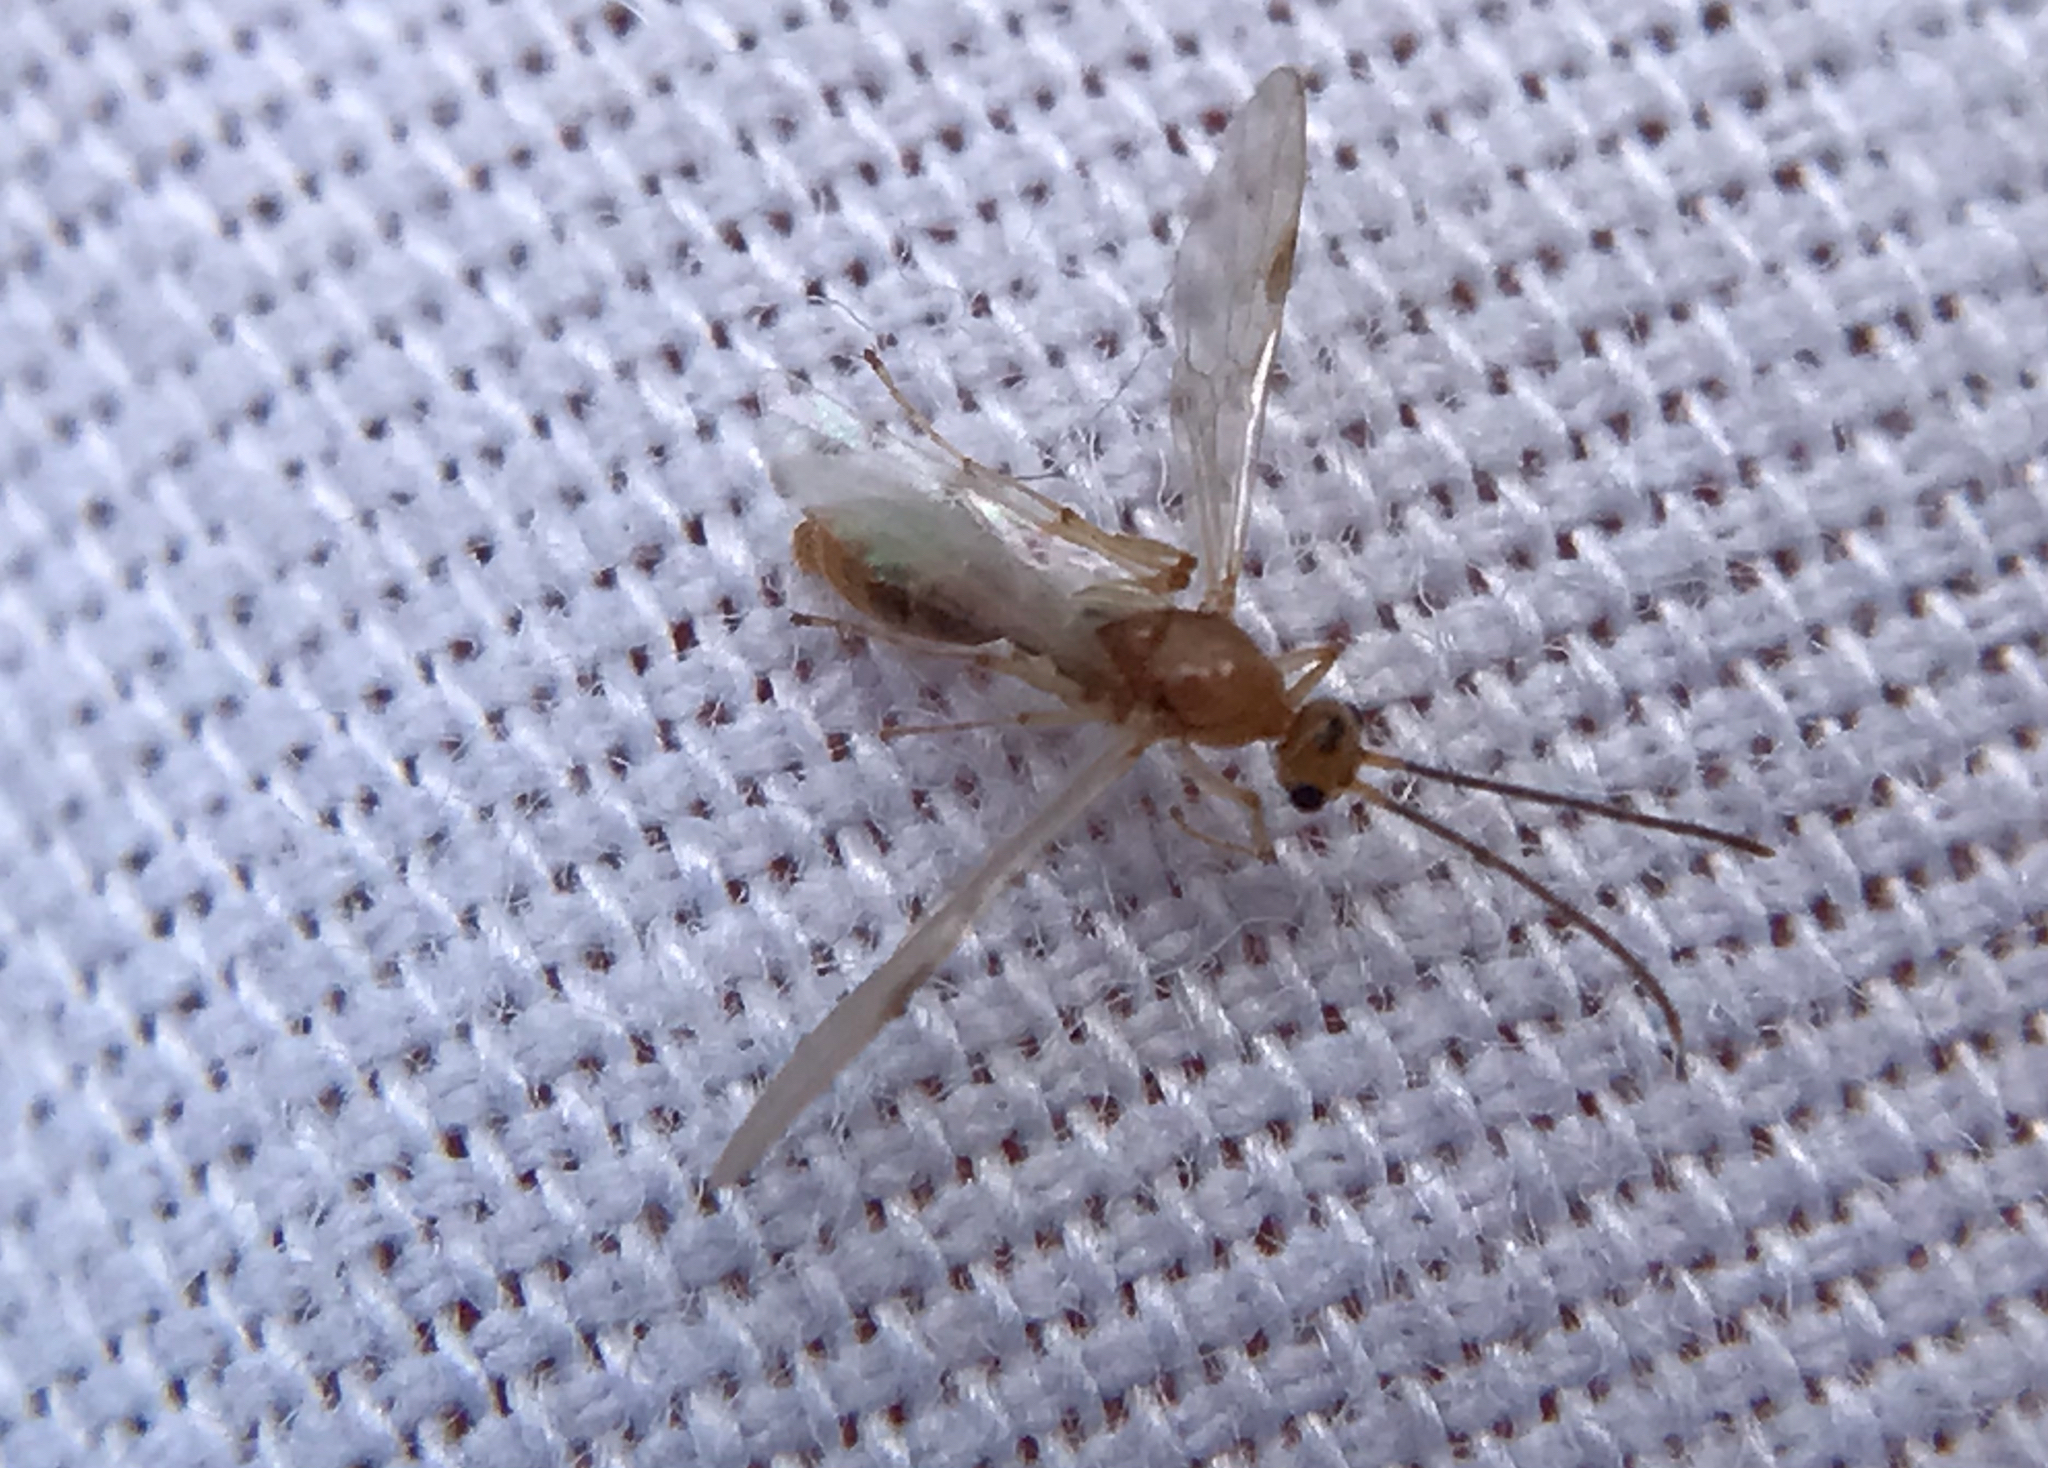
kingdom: Animalia
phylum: Arthropoda
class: Insecta
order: Hymenoptera
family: Formicidae
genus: Pachycondyla
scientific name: Pachycondyla chinensis
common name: Asian needle ant
